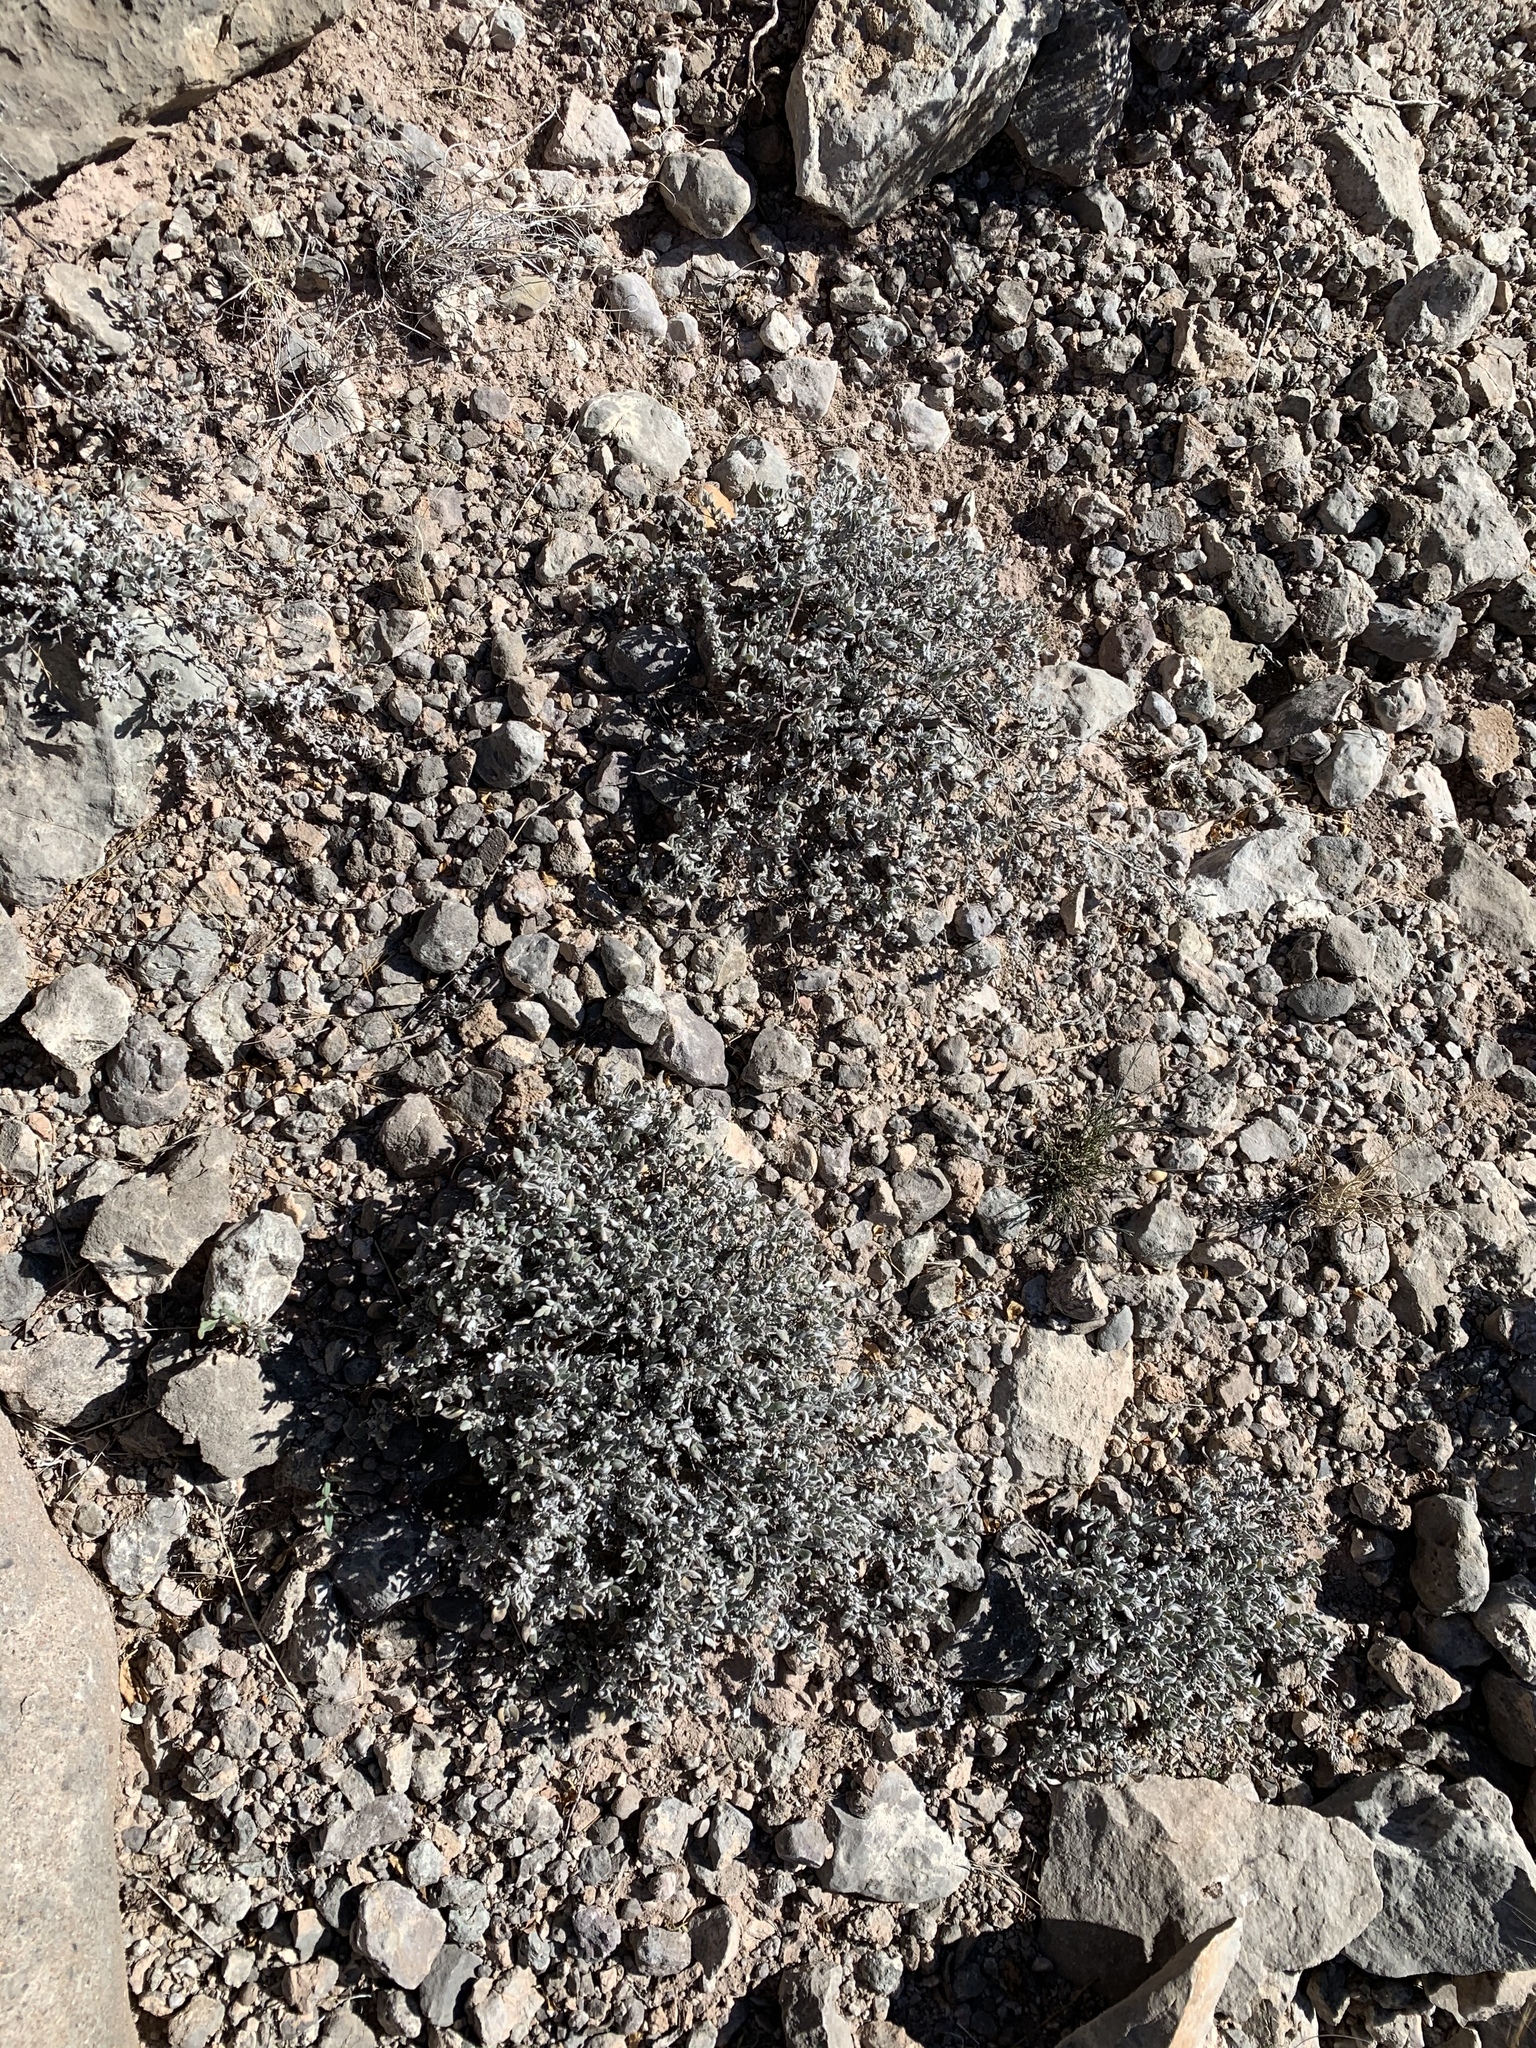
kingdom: Plantae
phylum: Tracheophyta
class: Magnoliopsida
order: Boraginales
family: Ehretiaceae
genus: Tiquilia
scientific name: Tiquilia canescens
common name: Hairy tiquilia
